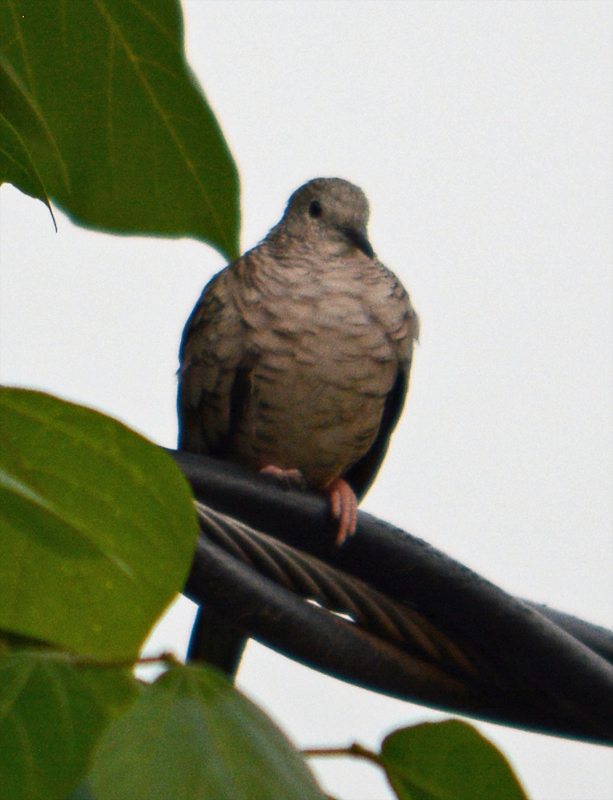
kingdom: Animalia
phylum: Chordata
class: Aves
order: Columbiformes
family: Columbidae
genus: Columbina
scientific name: Columbina inca
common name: Inca dove
